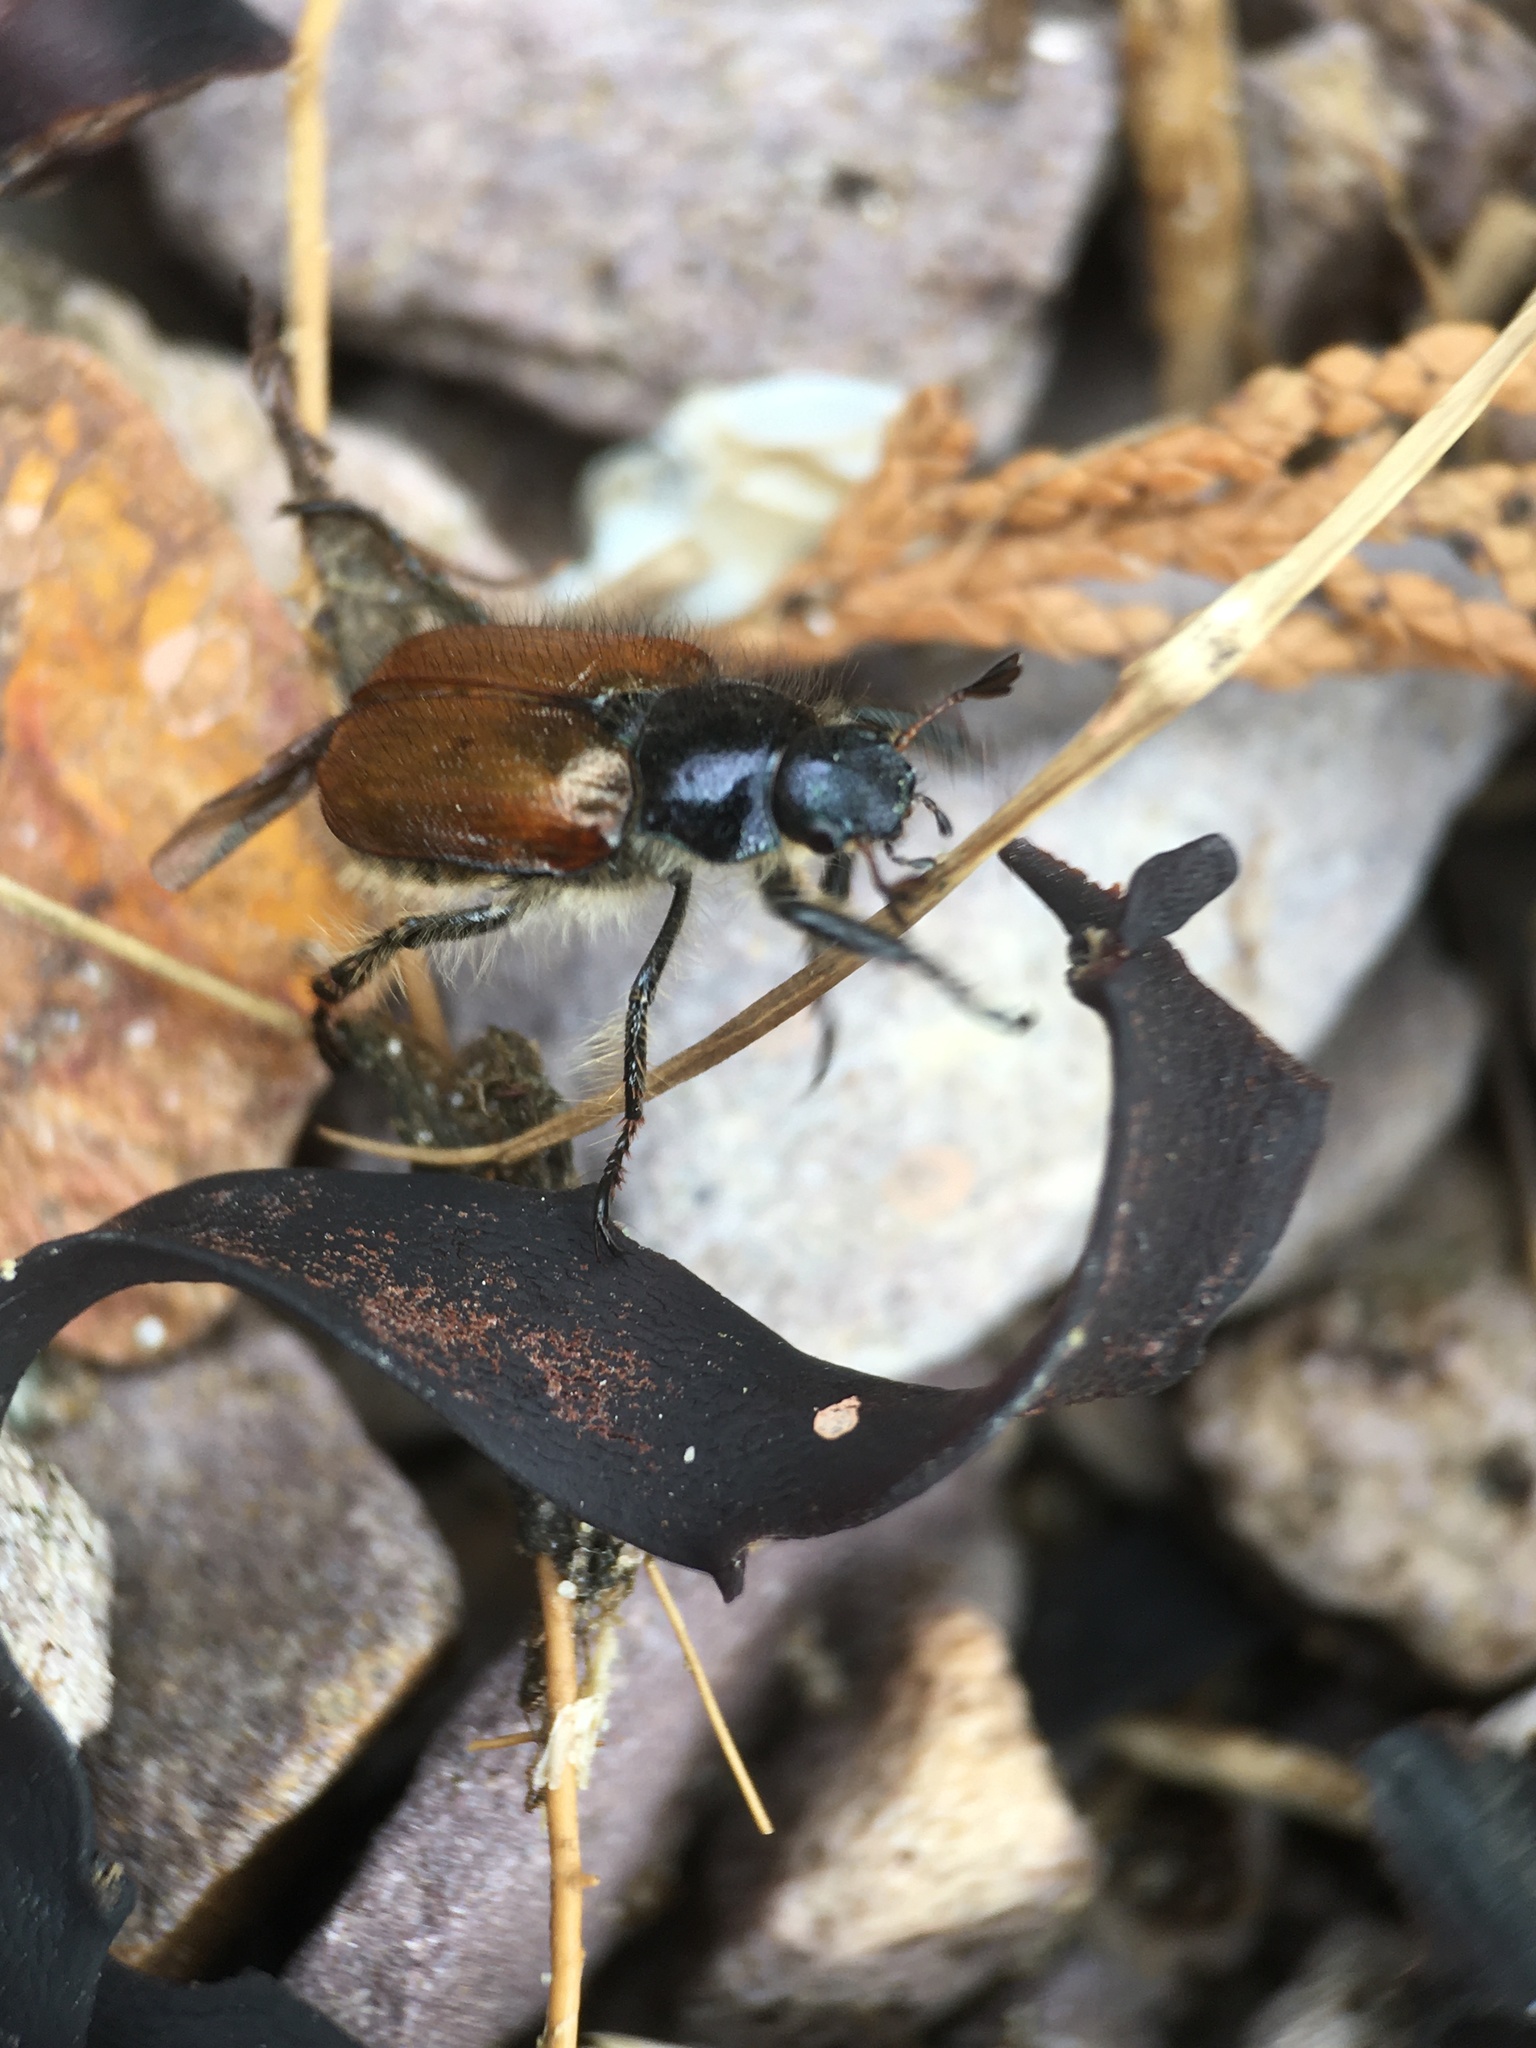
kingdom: Animalia
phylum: Arthropoda
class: Insecta
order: Coleoptera
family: Scarabaeidae
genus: Phyllopertha
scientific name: Phyllopertha horticola
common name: Garden chafer
